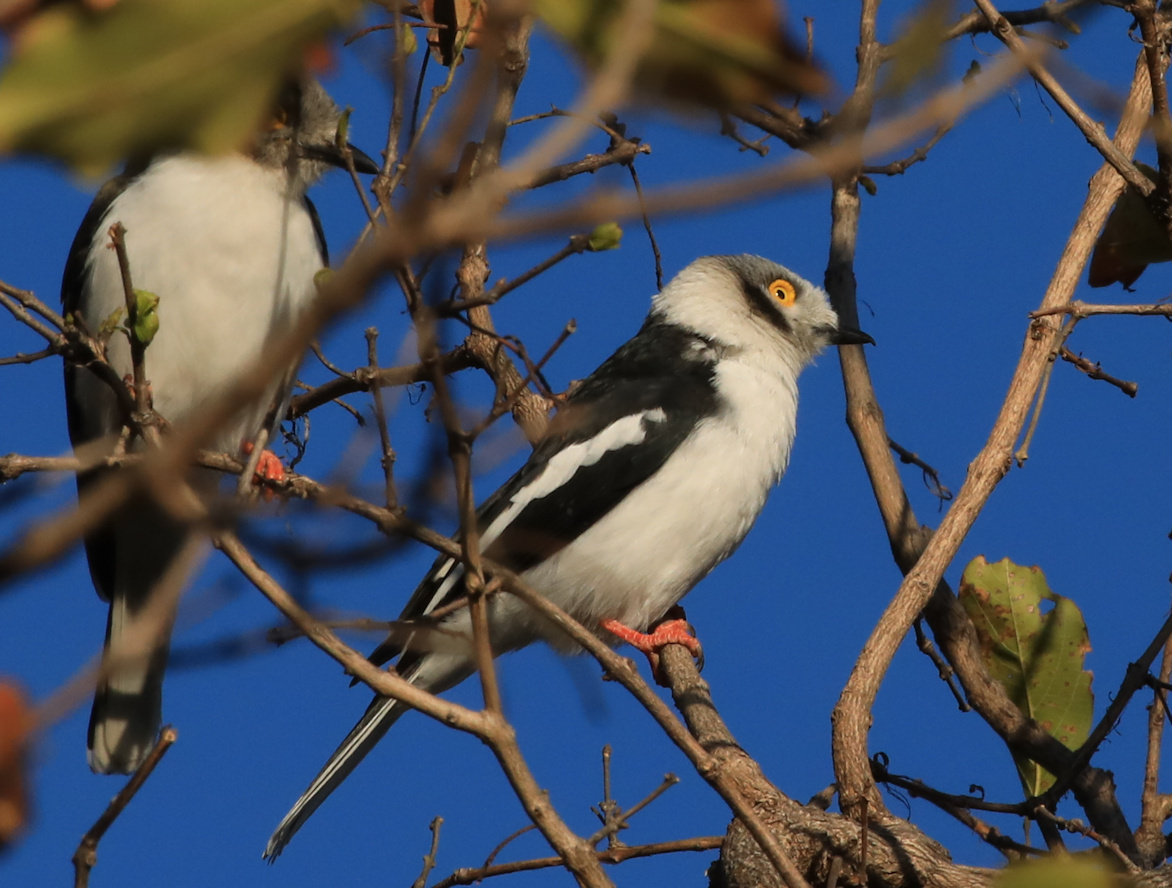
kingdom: Animalia
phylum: Chordata
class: Aves
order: Passeriformes
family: Prionopidae
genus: Prionops
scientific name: Prionops plumatus
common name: White-crested helmetshrike
